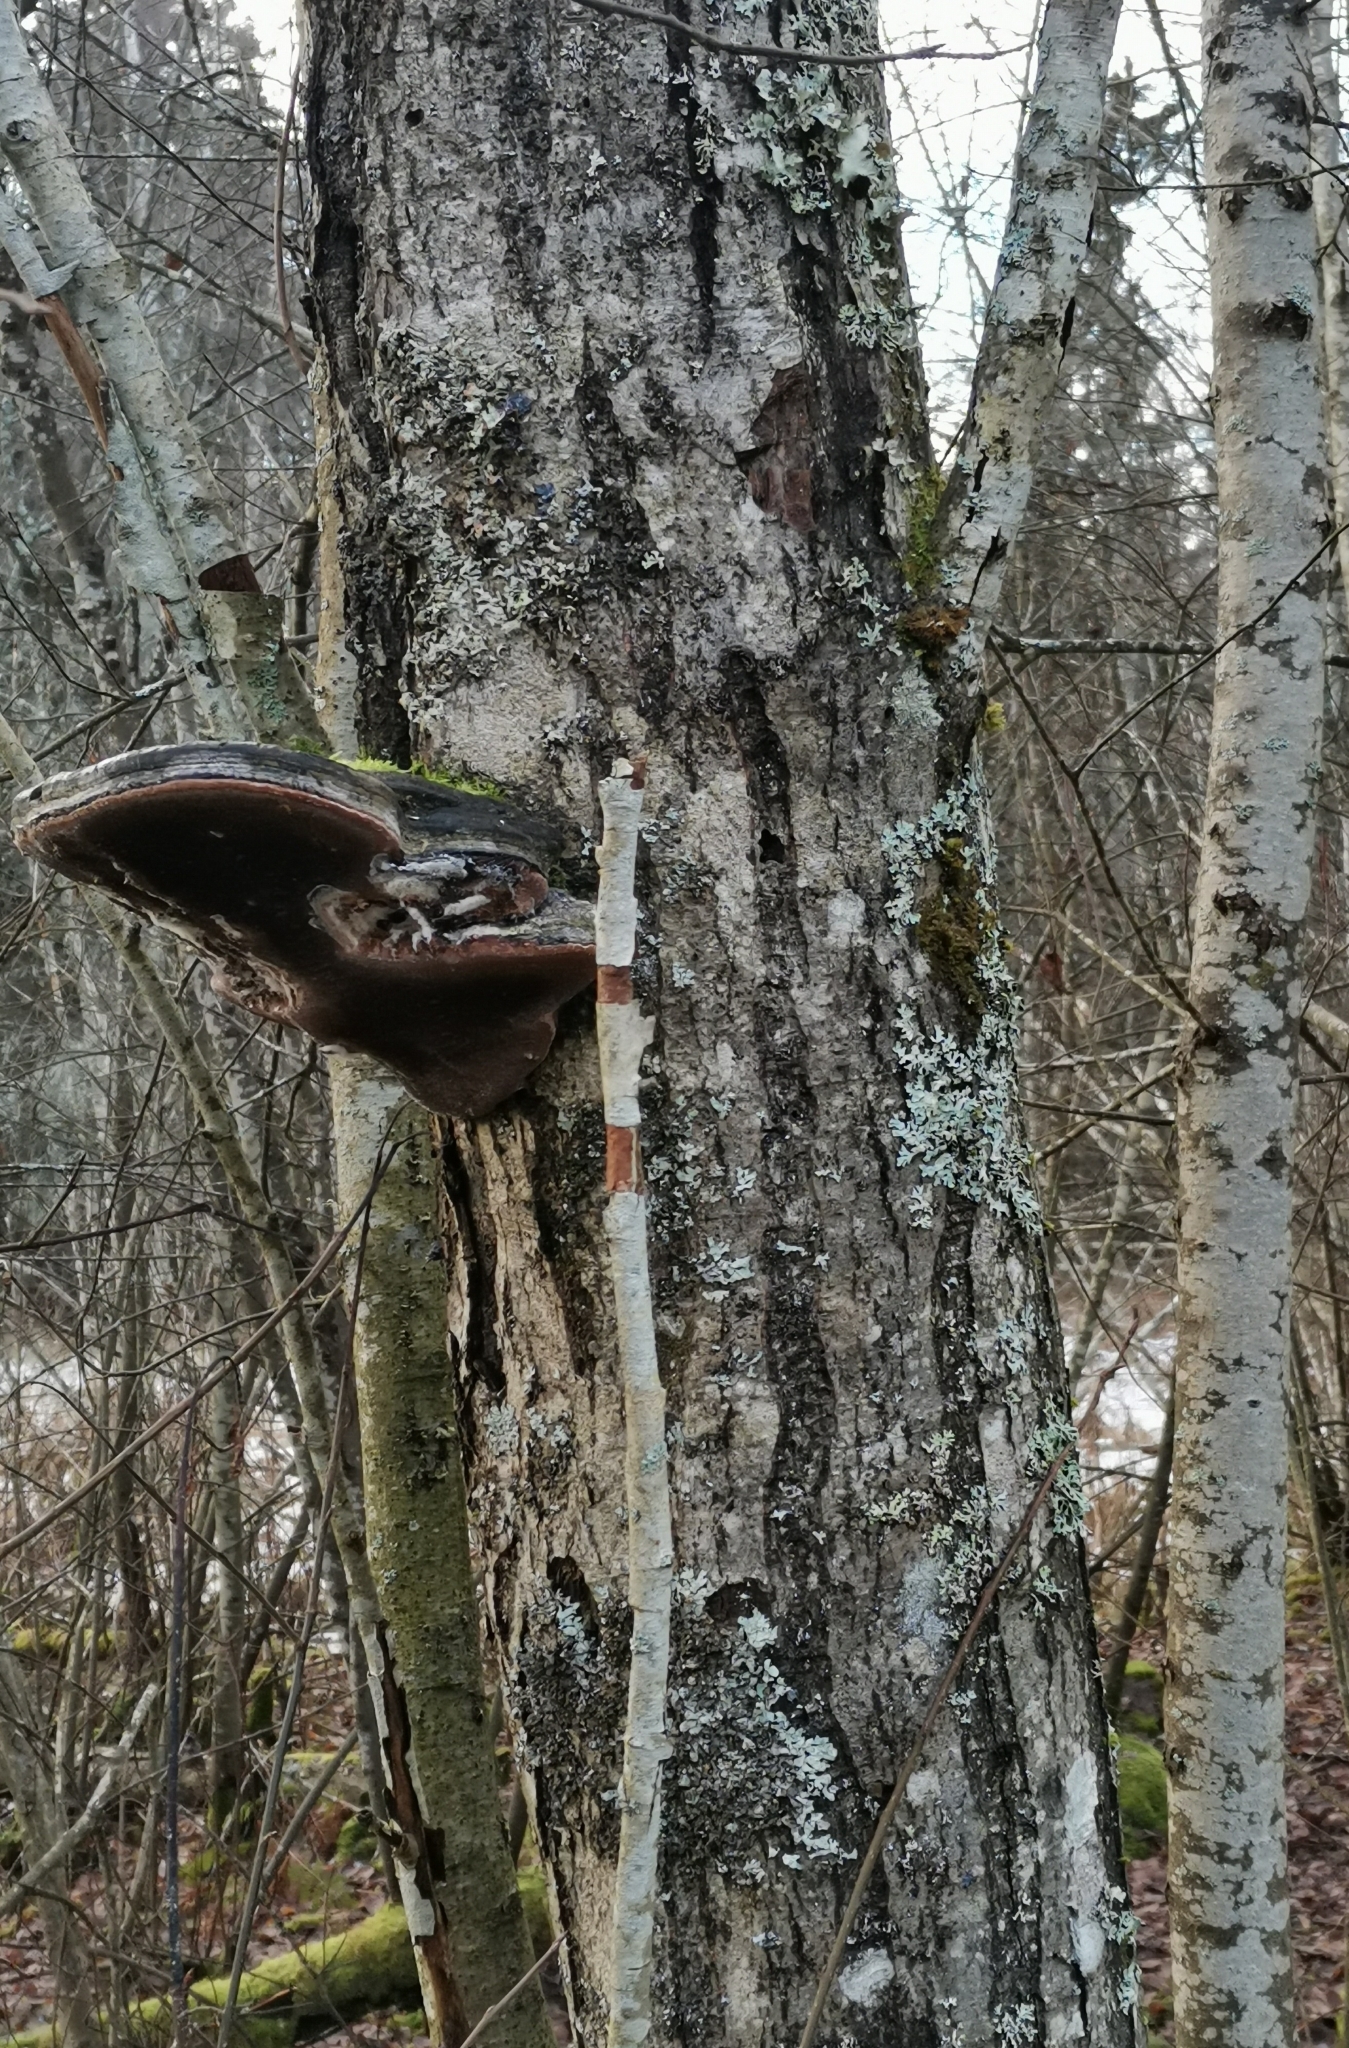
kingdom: Fungi
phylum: Basidiomycota
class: Agaricomycetes
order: Hymenochaetales
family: Hymenochaetaceae
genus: Phellinus
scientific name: Phellinus igniarius
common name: Willow bracket
